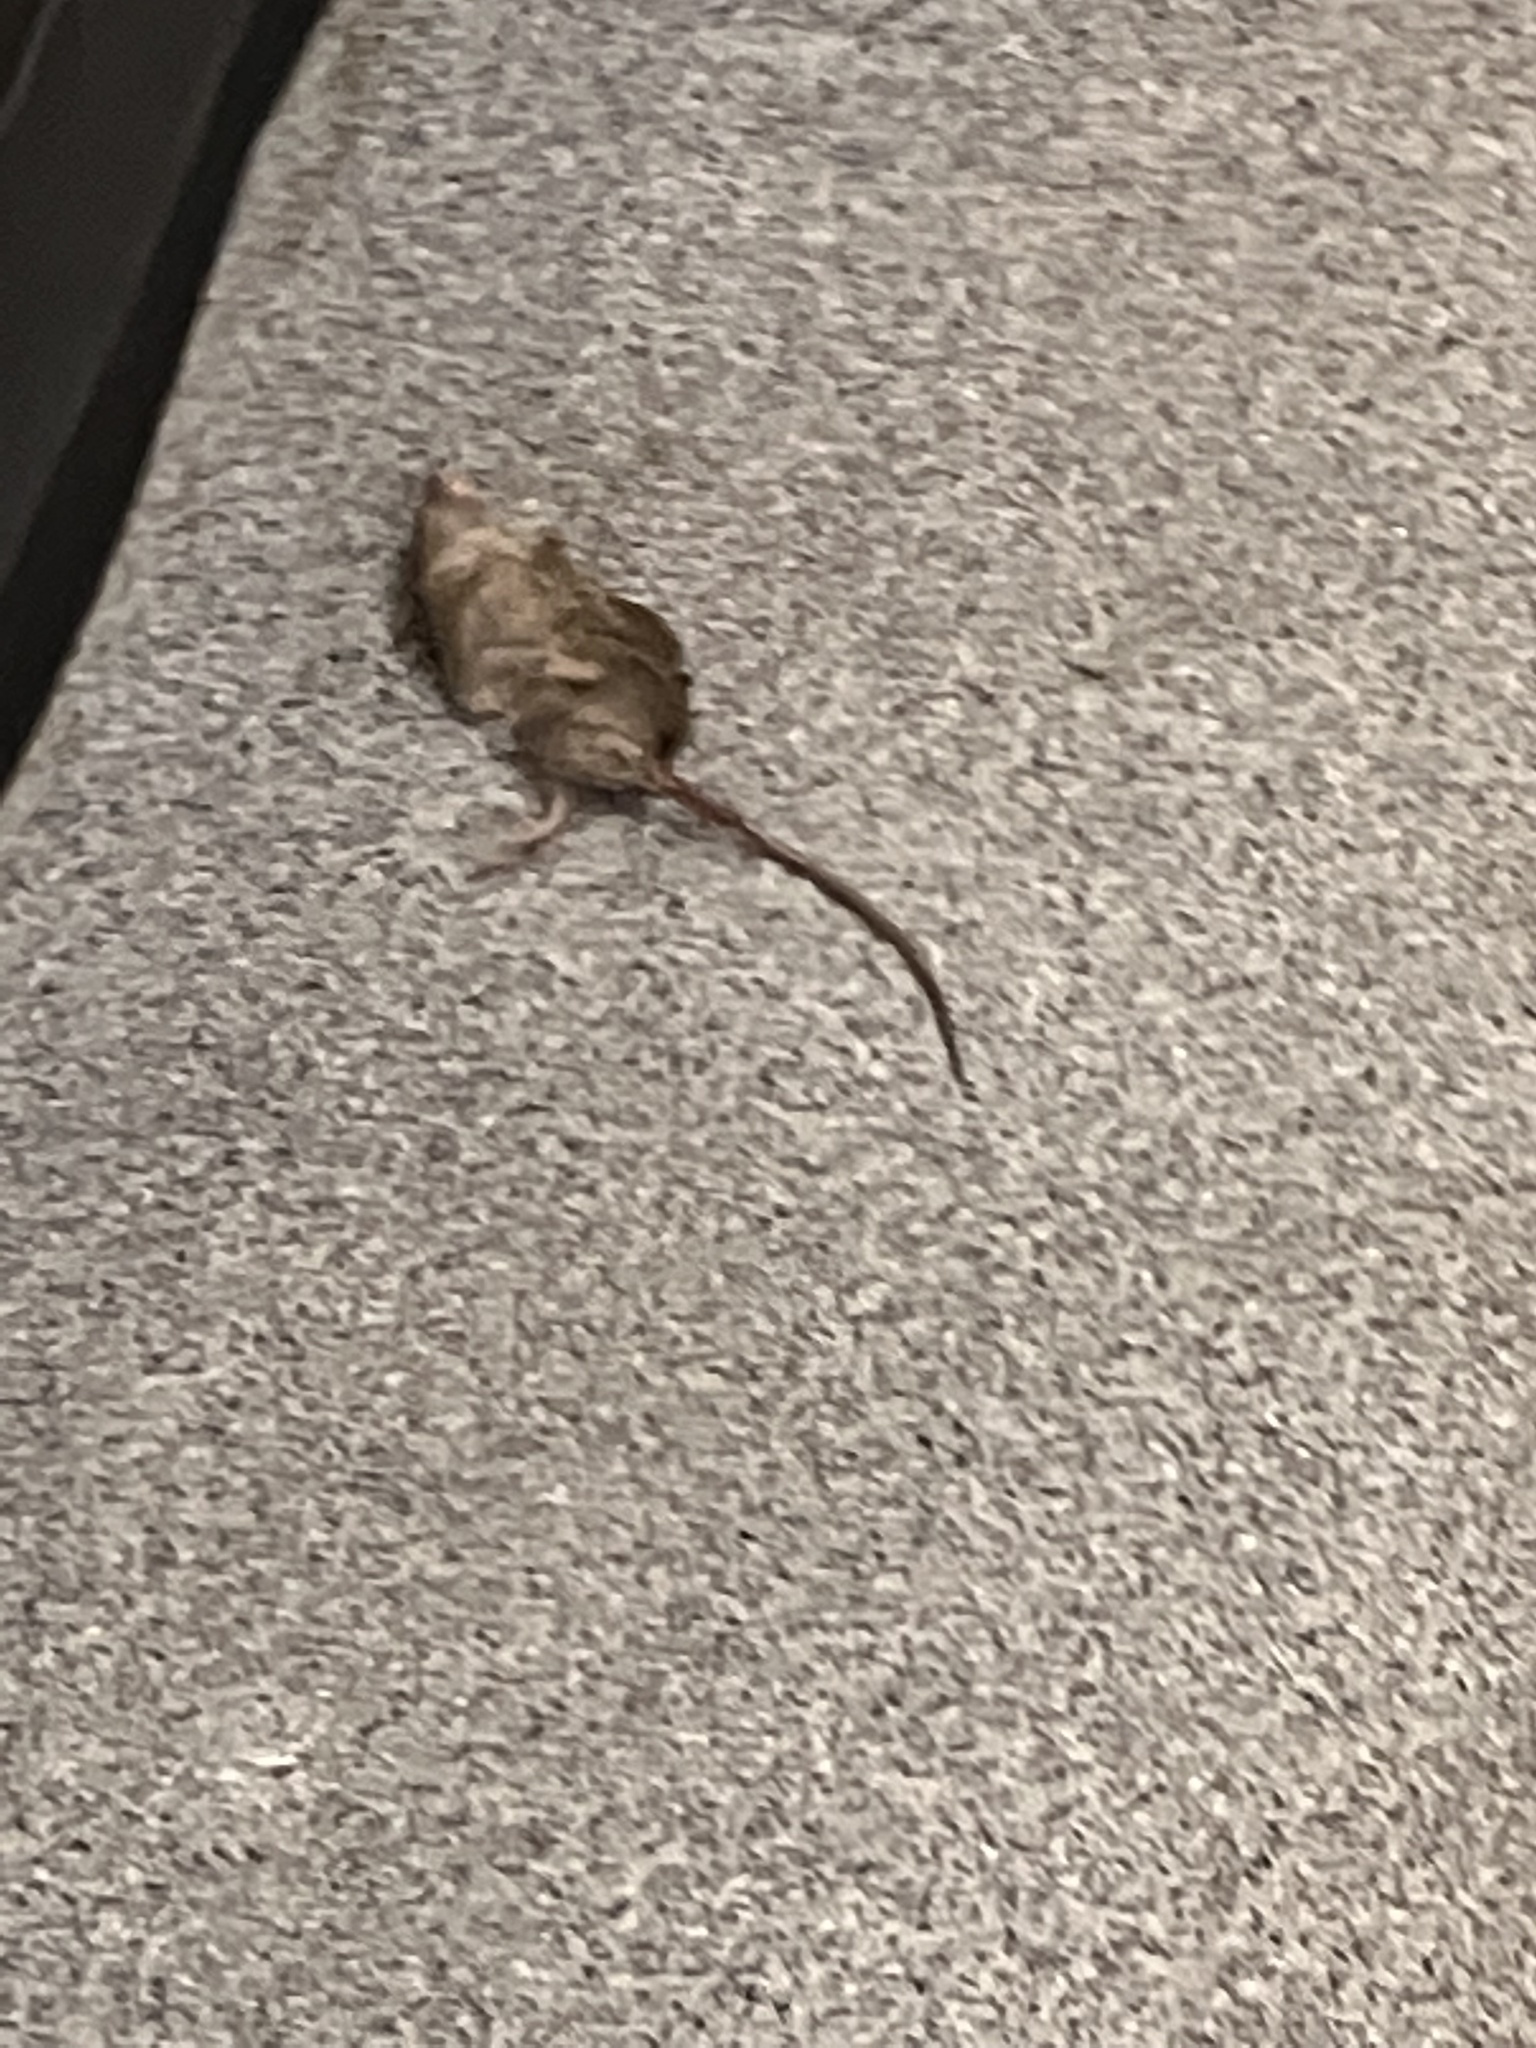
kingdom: Animalia
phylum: Chordata
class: Mammalia
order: Rodentia
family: Muridae
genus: Mus
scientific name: Mus musculus
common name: House mouse
